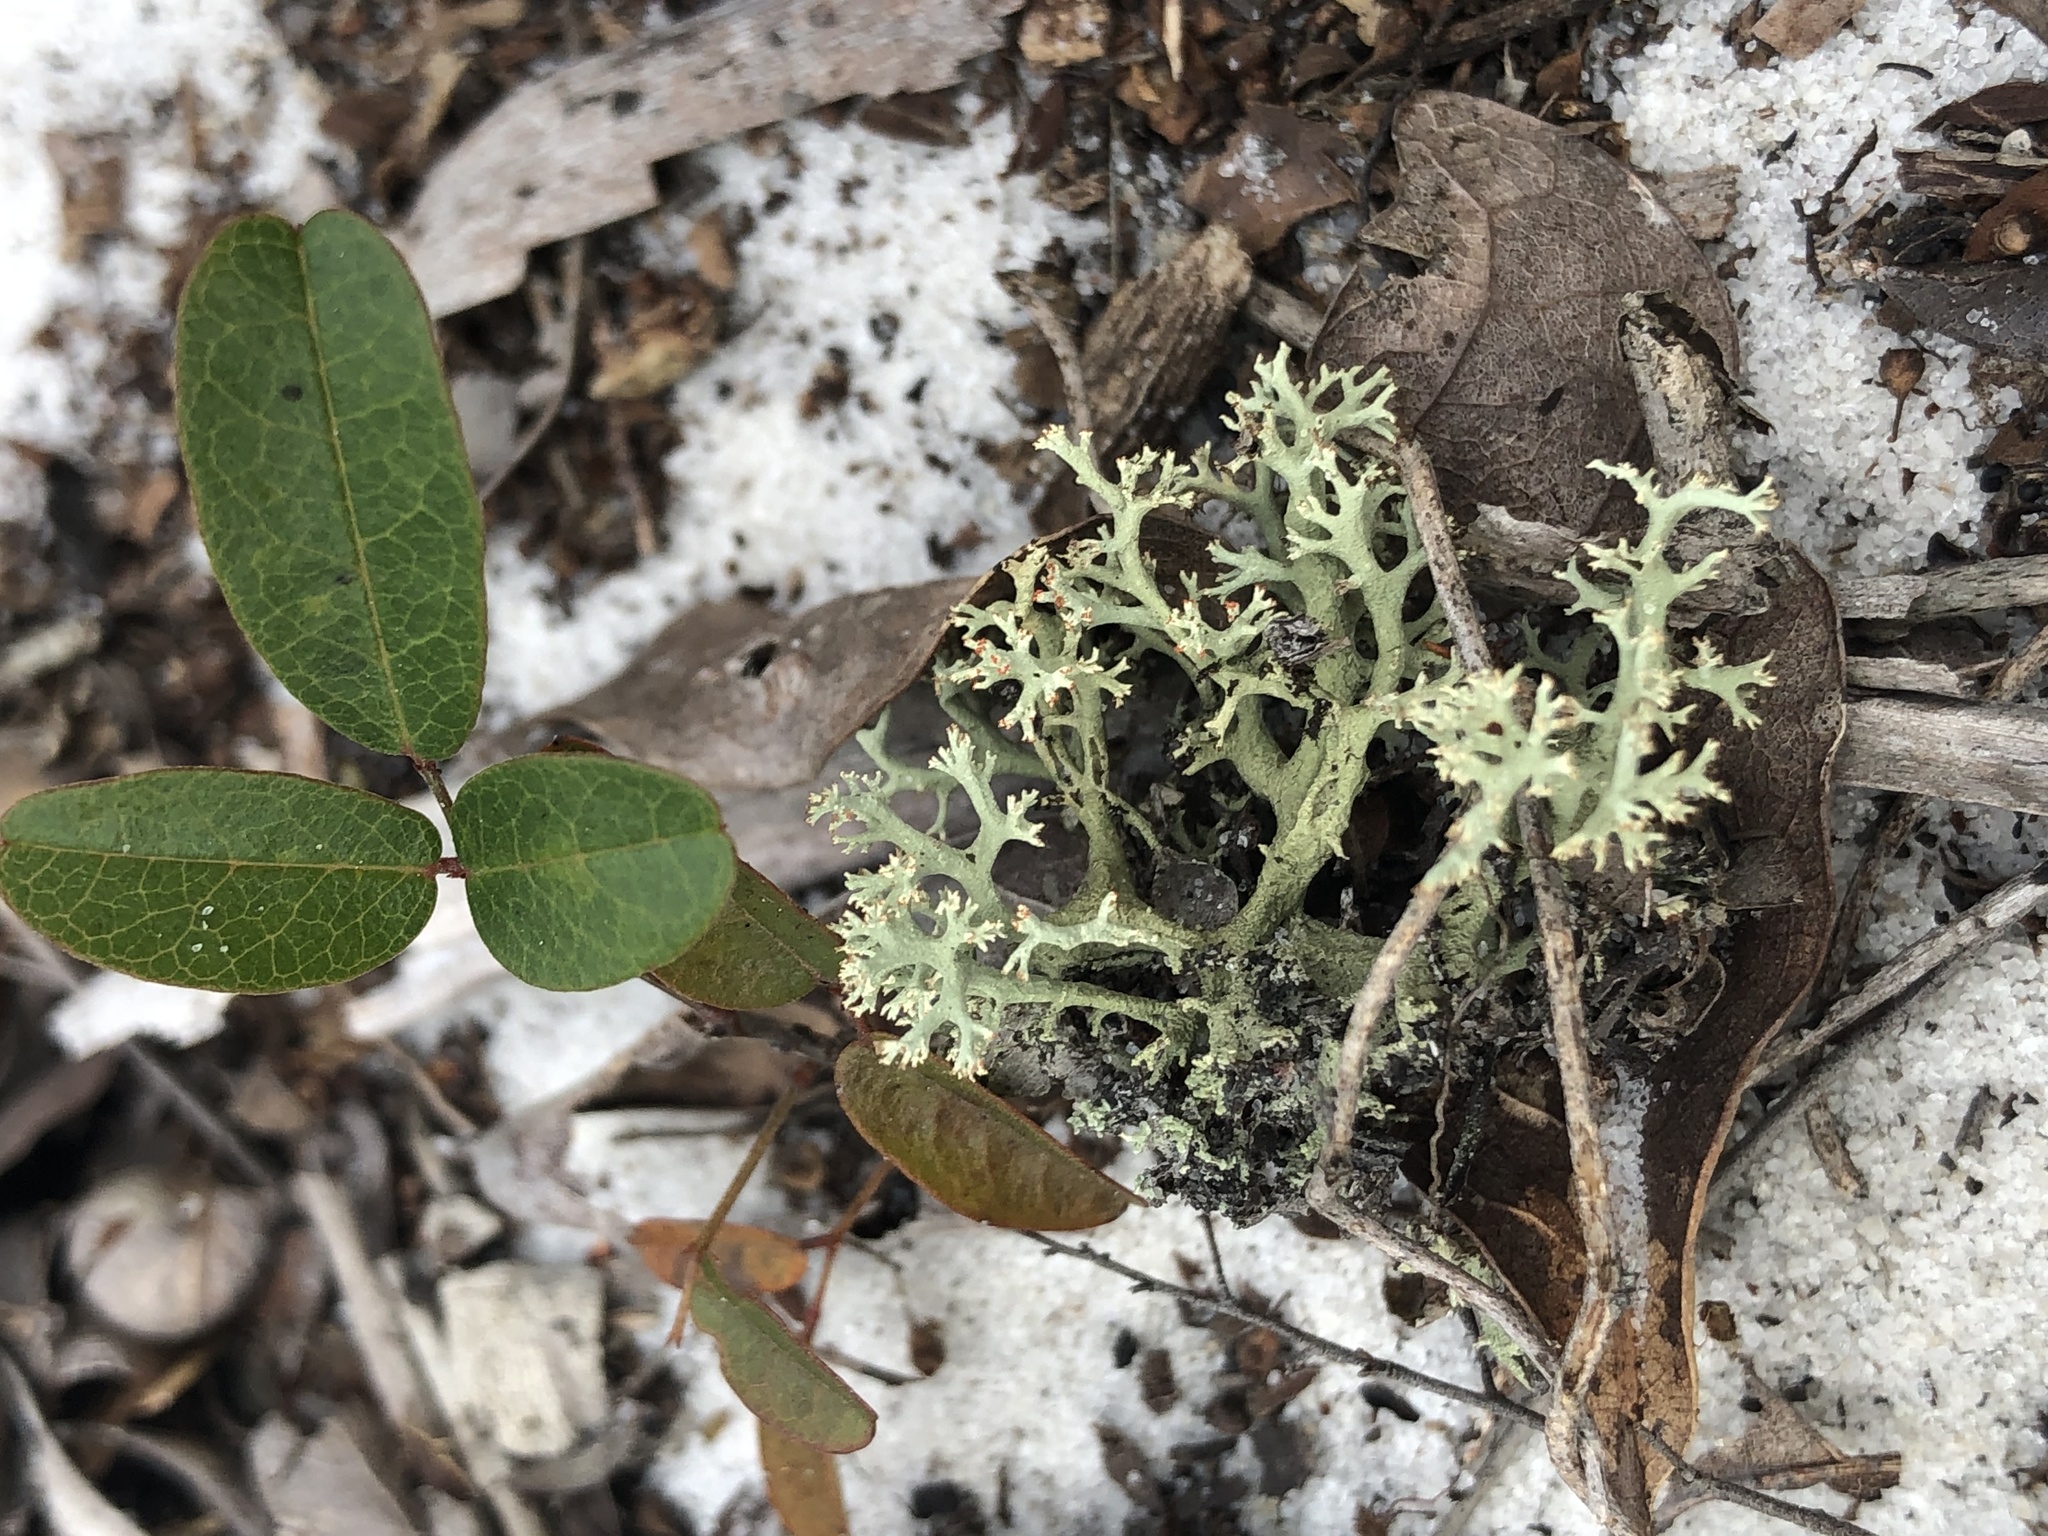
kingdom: Fungi
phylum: Ascomycota
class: Lecanoromycetes
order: Lecanorales
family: Cladoniaceae
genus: Cladonia
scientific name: Cladonia leporina
